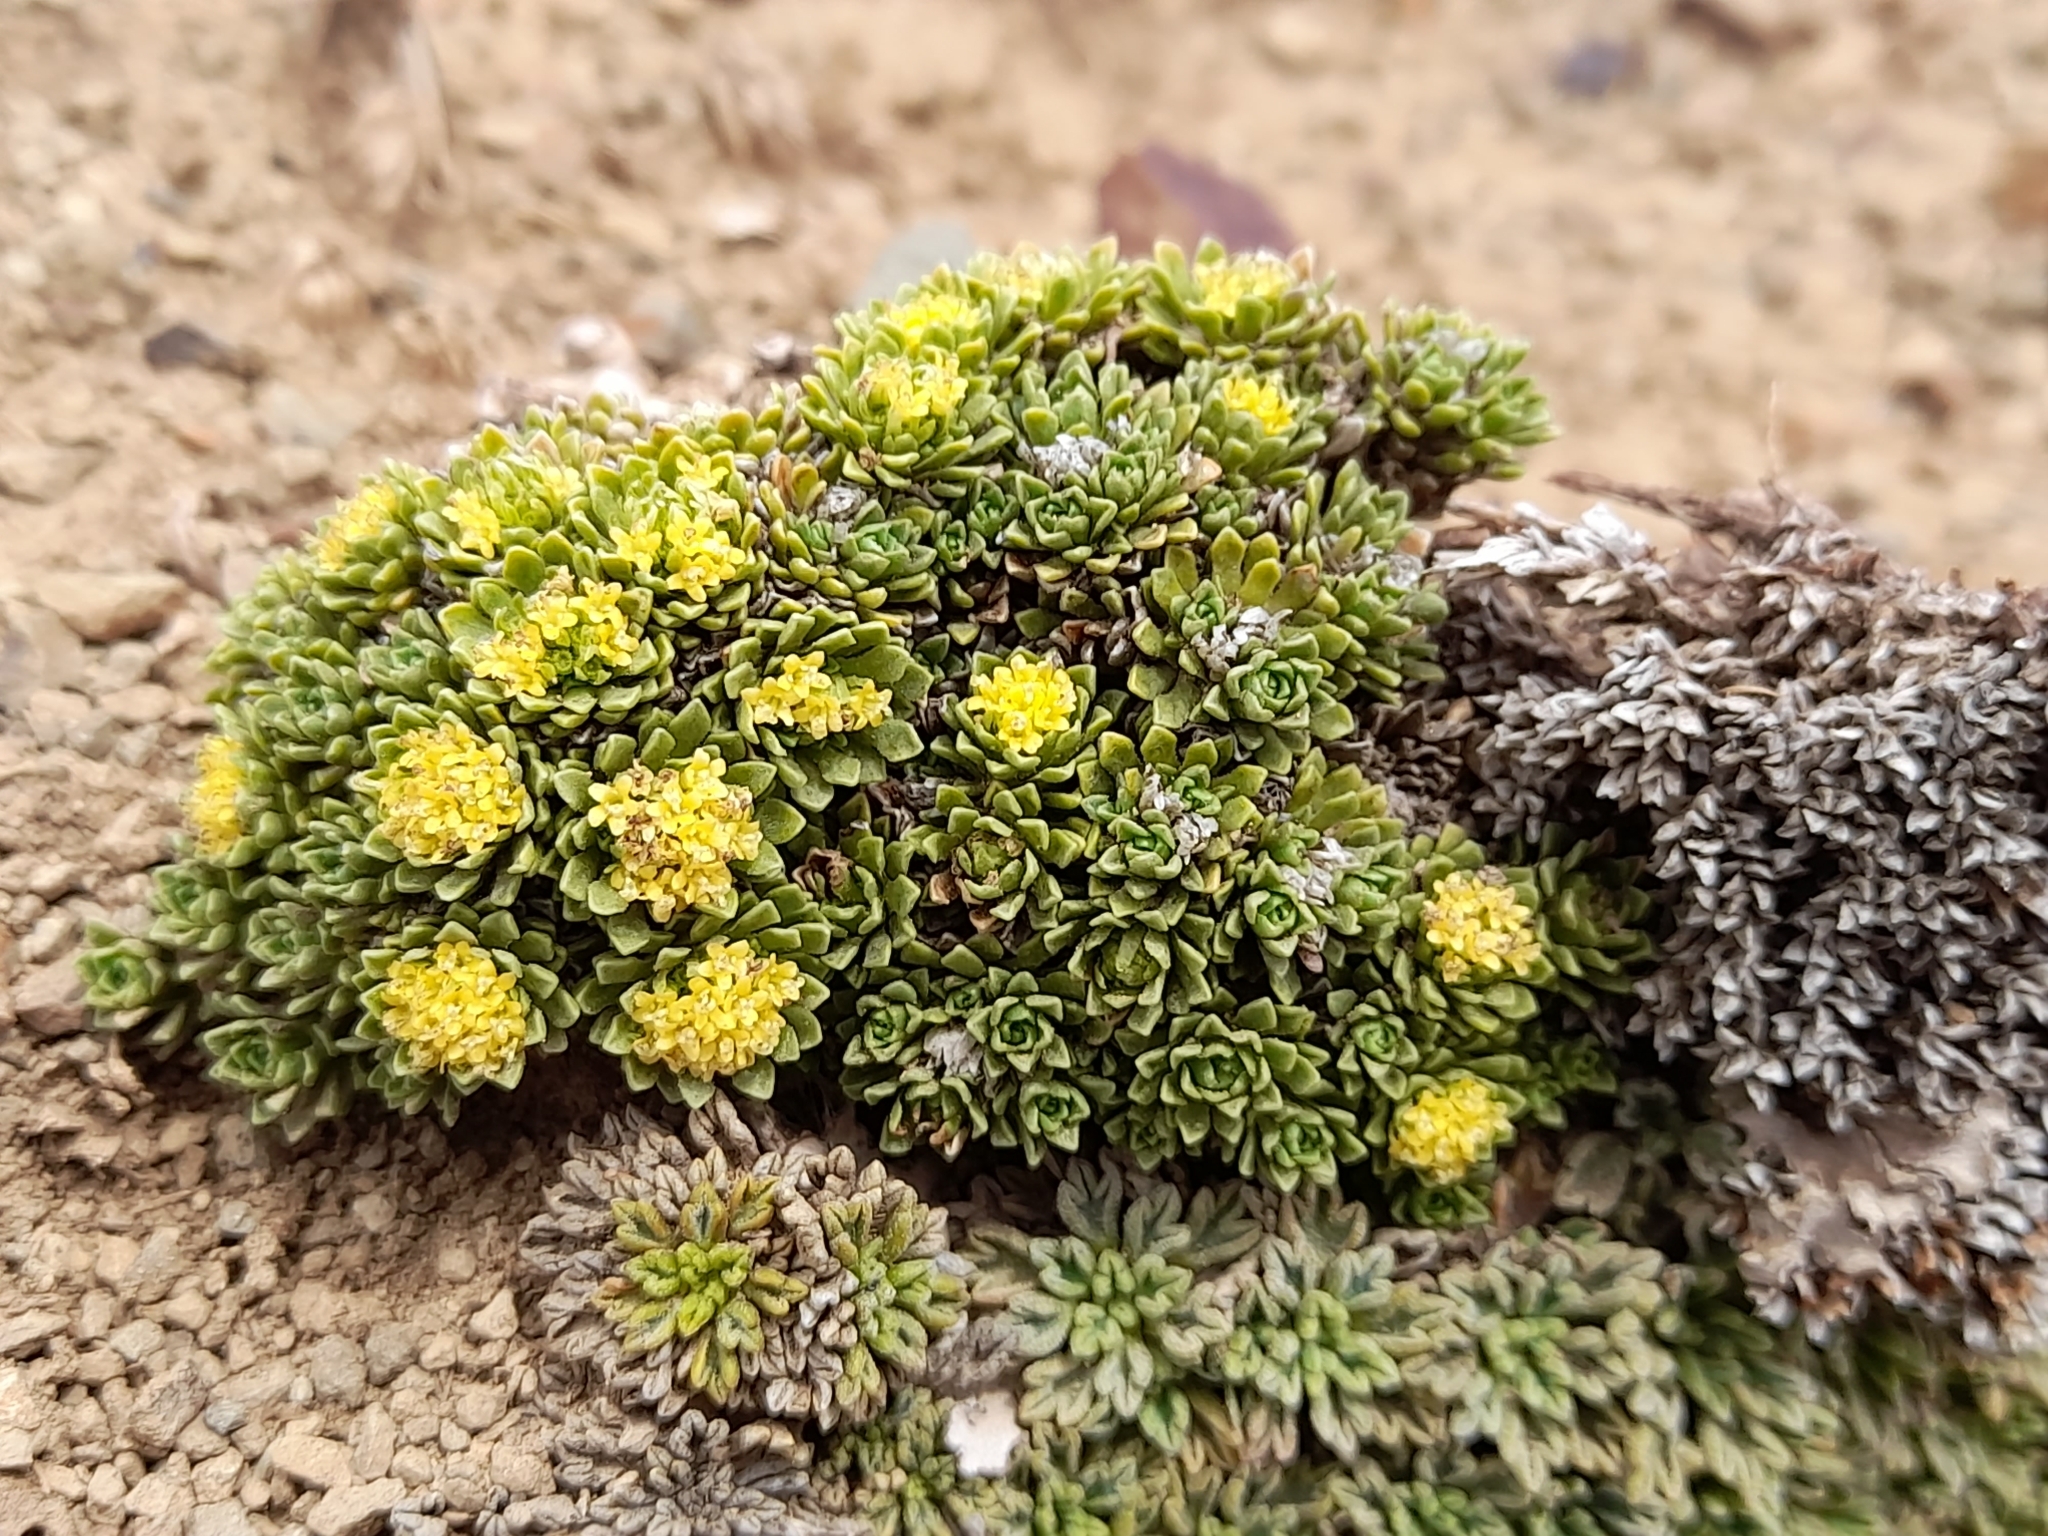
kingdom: Plantae
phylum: Tracheophyta
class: Magnoliopsida
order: Dipsacales
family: Caprifoliaceae
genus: Valeriana
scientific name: Valeriana sedifolia
